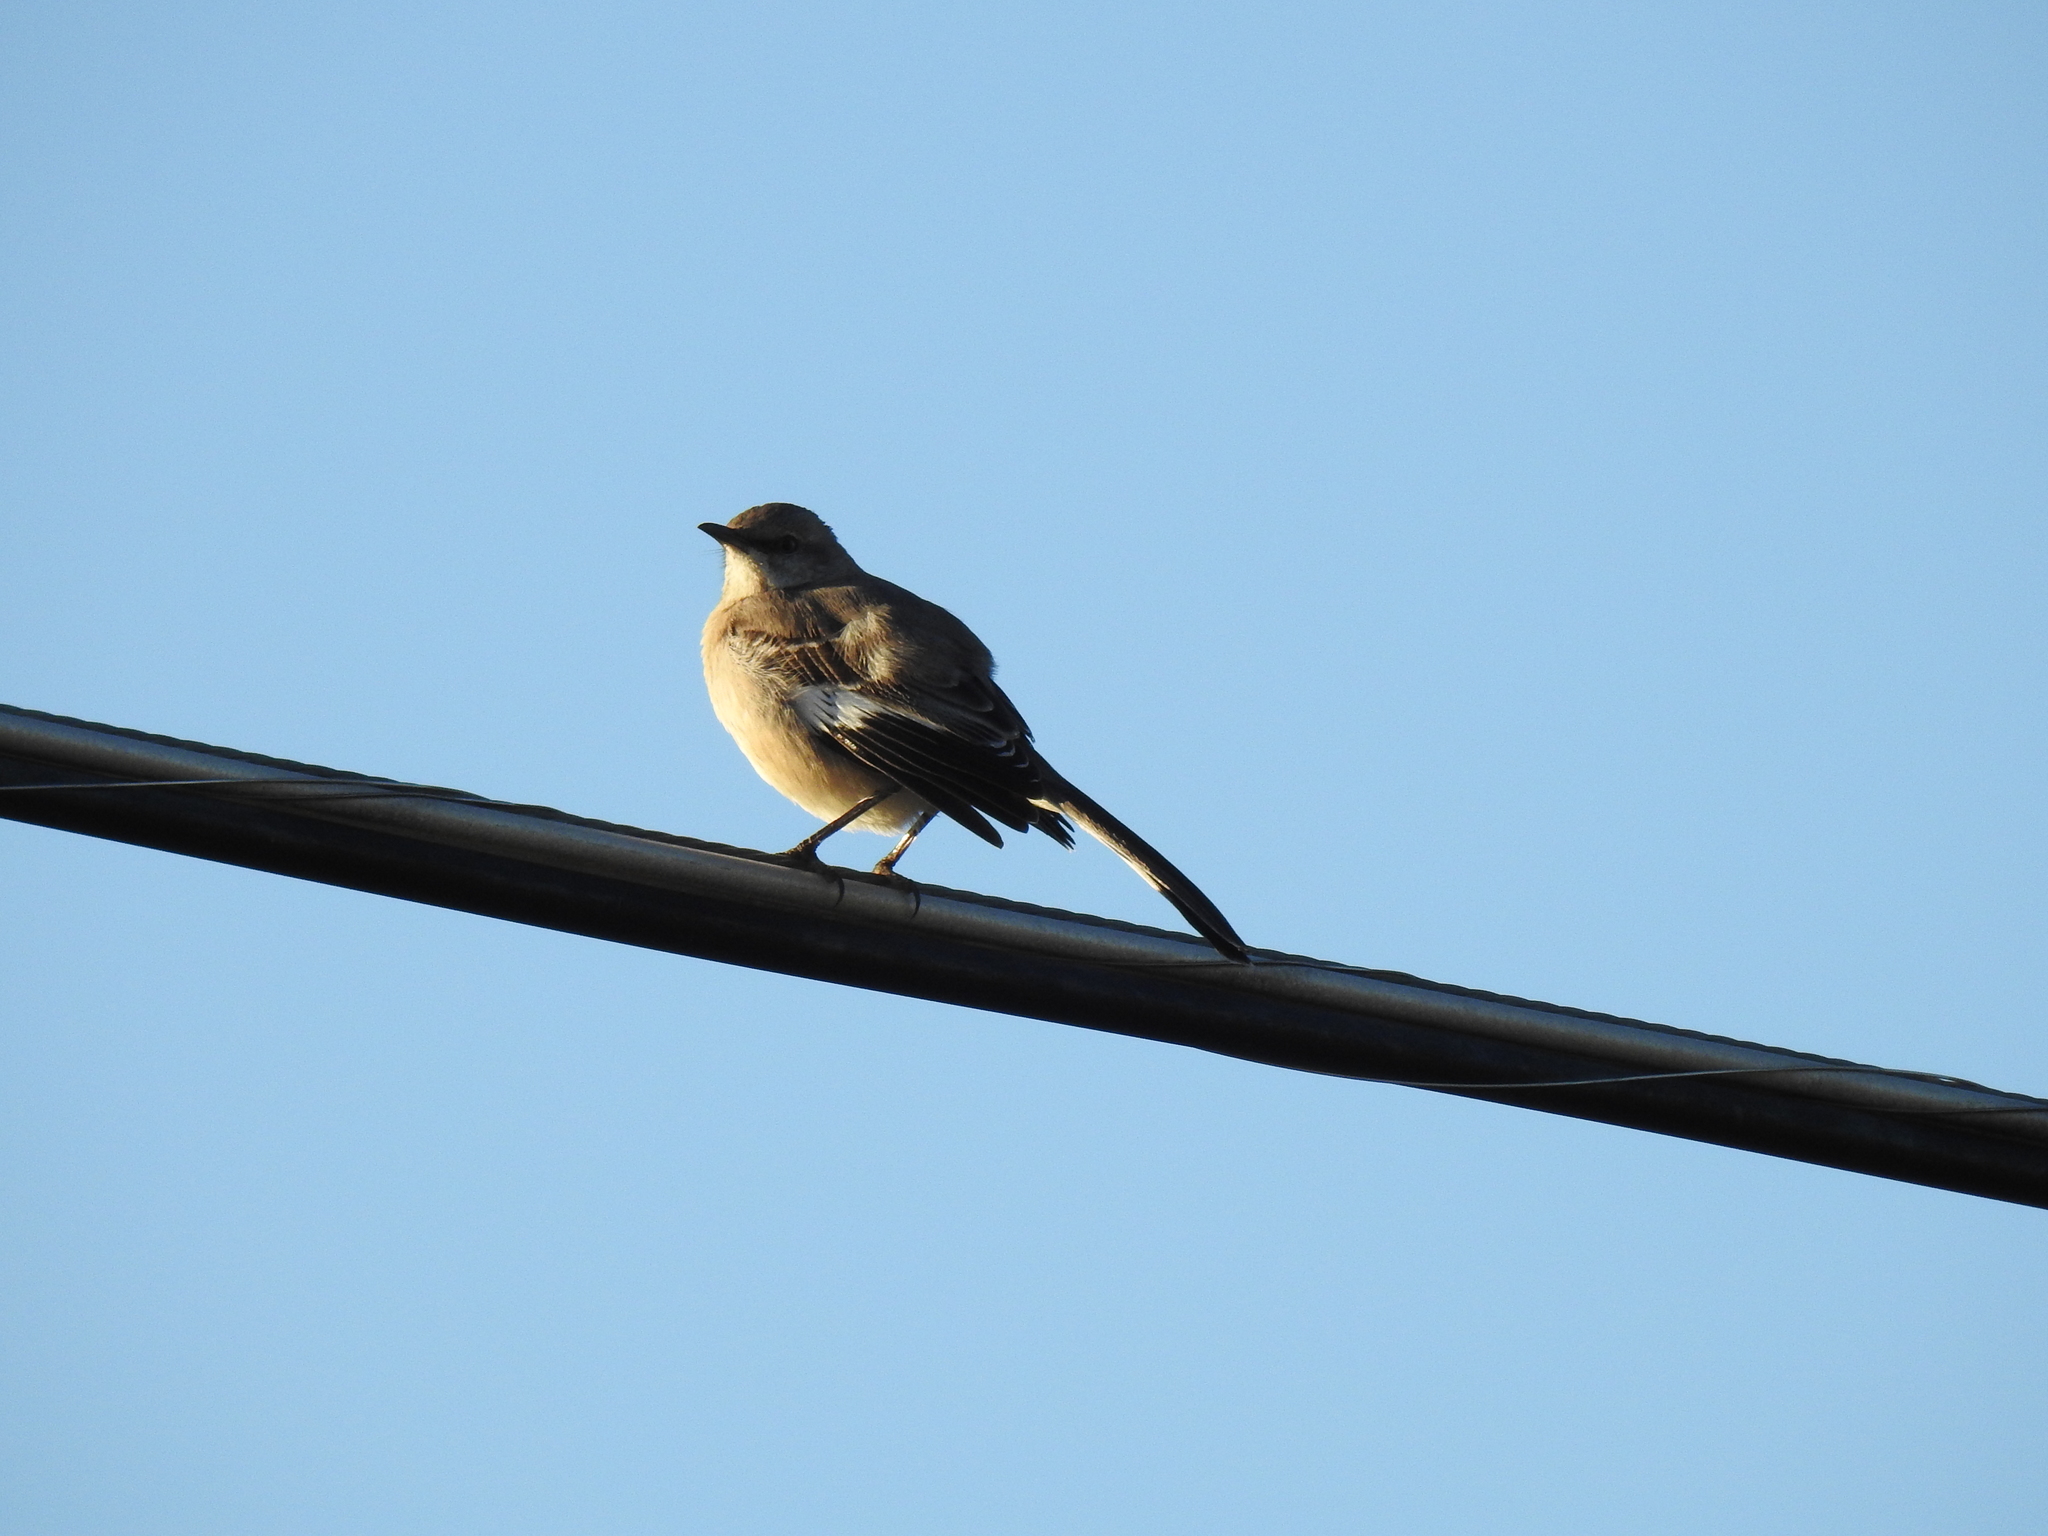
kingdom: Animalia
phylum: Chordata
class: Aves
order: Passeriformes
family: Mimidae
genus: Mimus
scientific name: Mimus polyglottos
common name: Northern mockingbird
